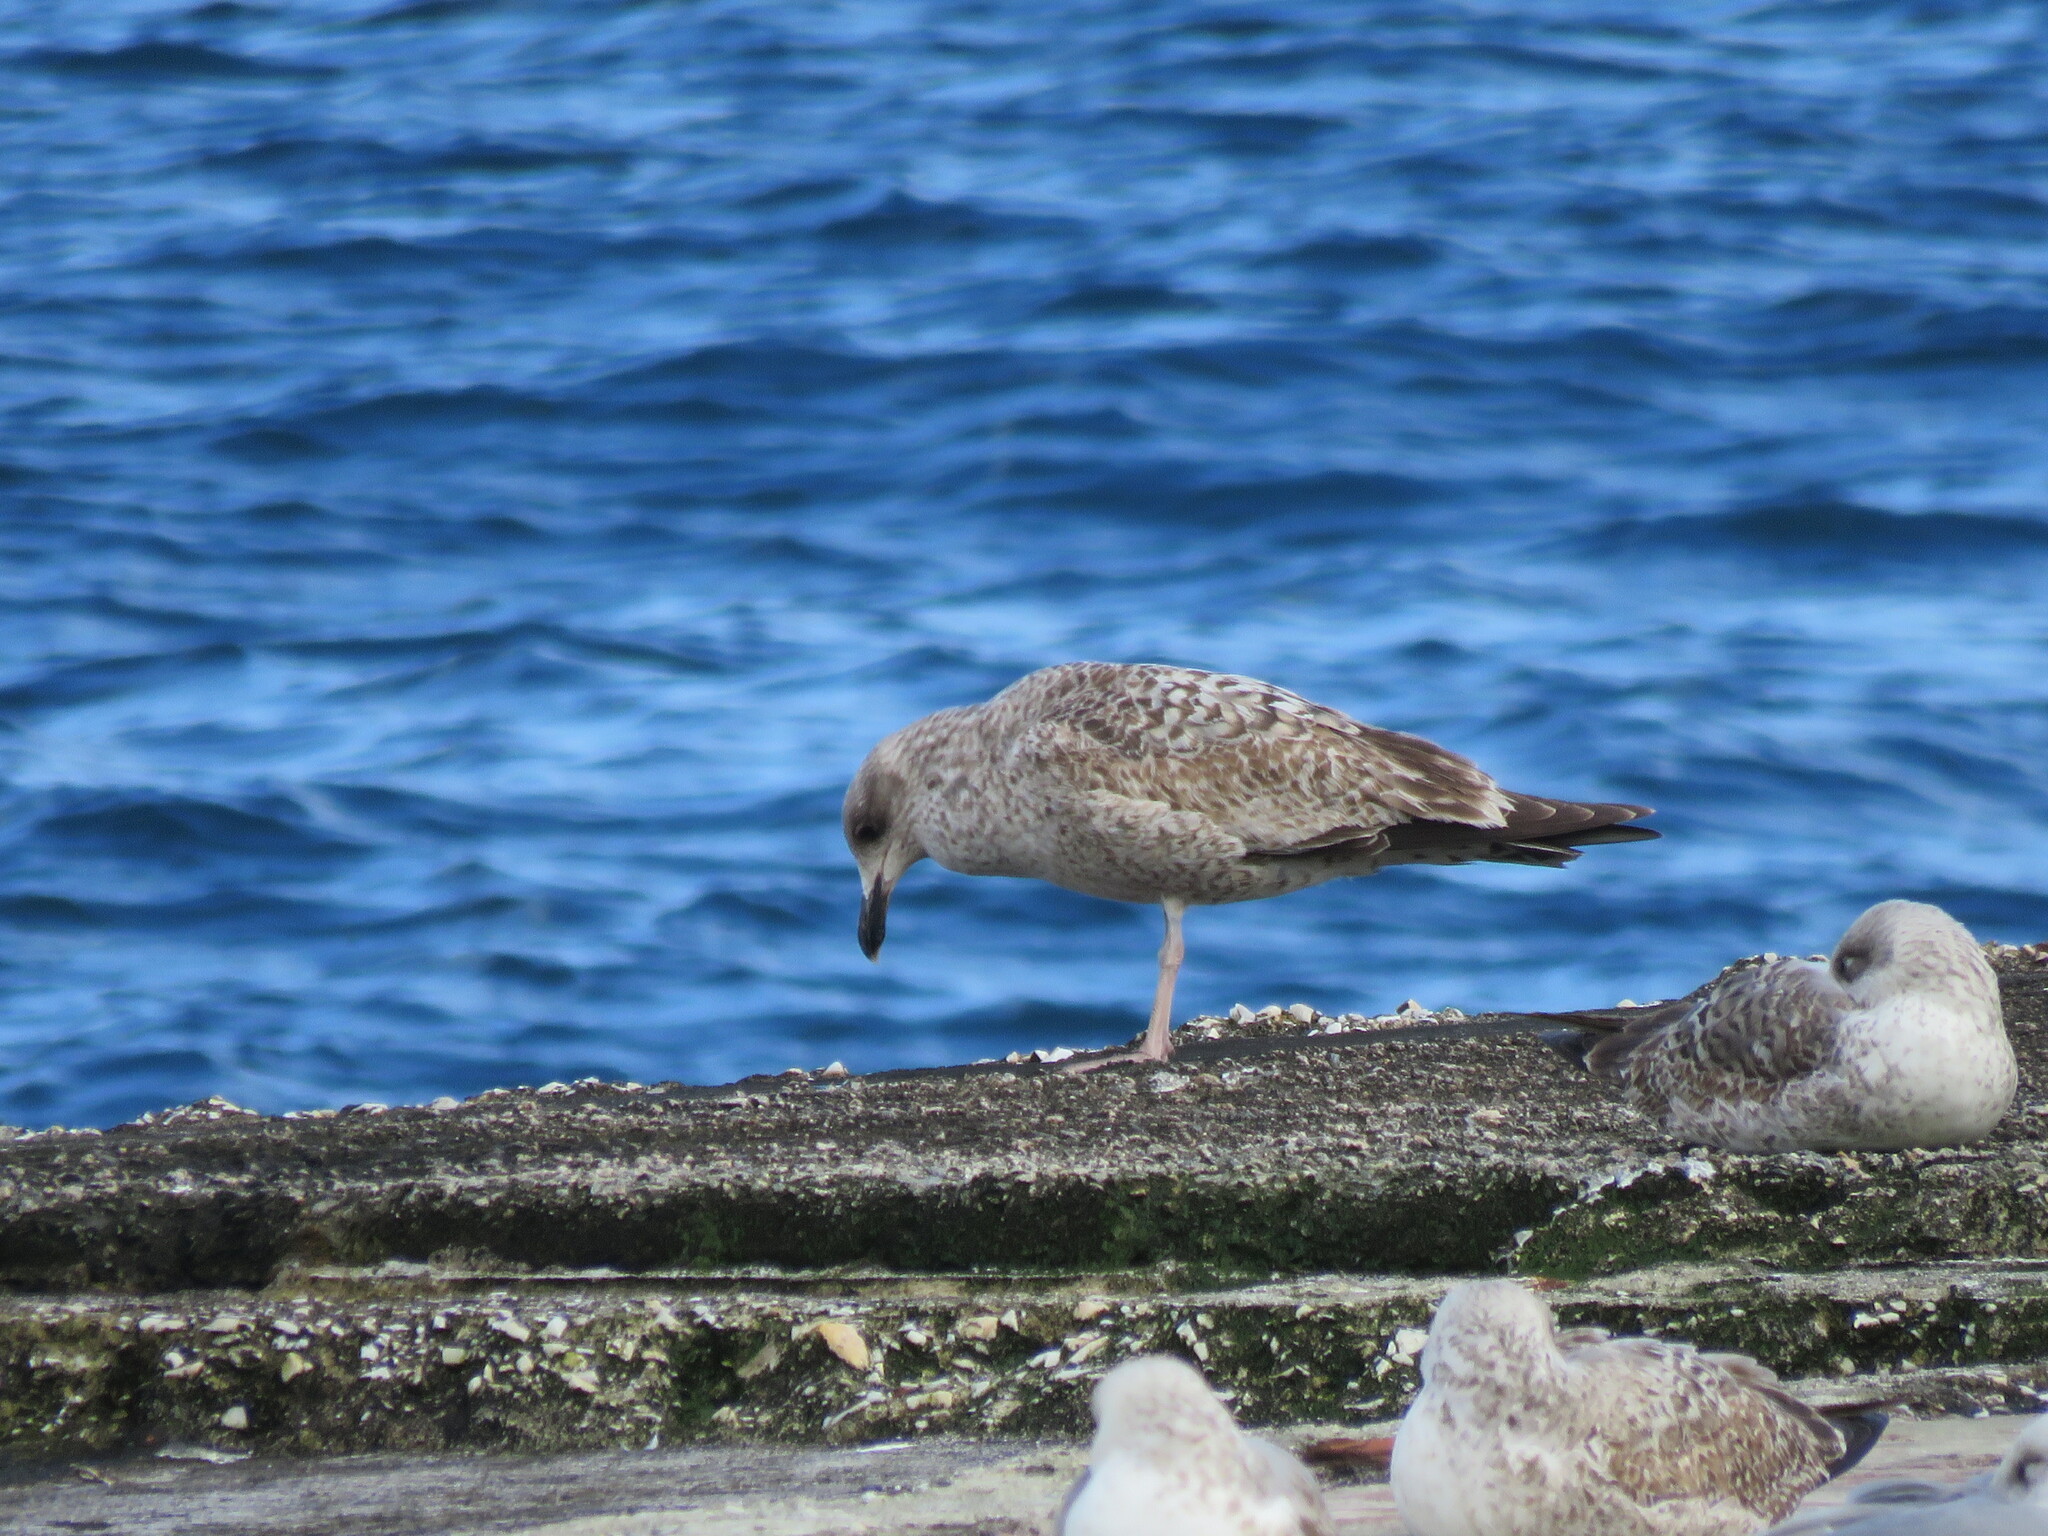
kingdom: Animalia
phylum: Chordata
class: Aves
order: Charadriiformes
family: Laridae
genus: Larus
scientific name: Larus fuscus
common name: Lesser black-backed gull
